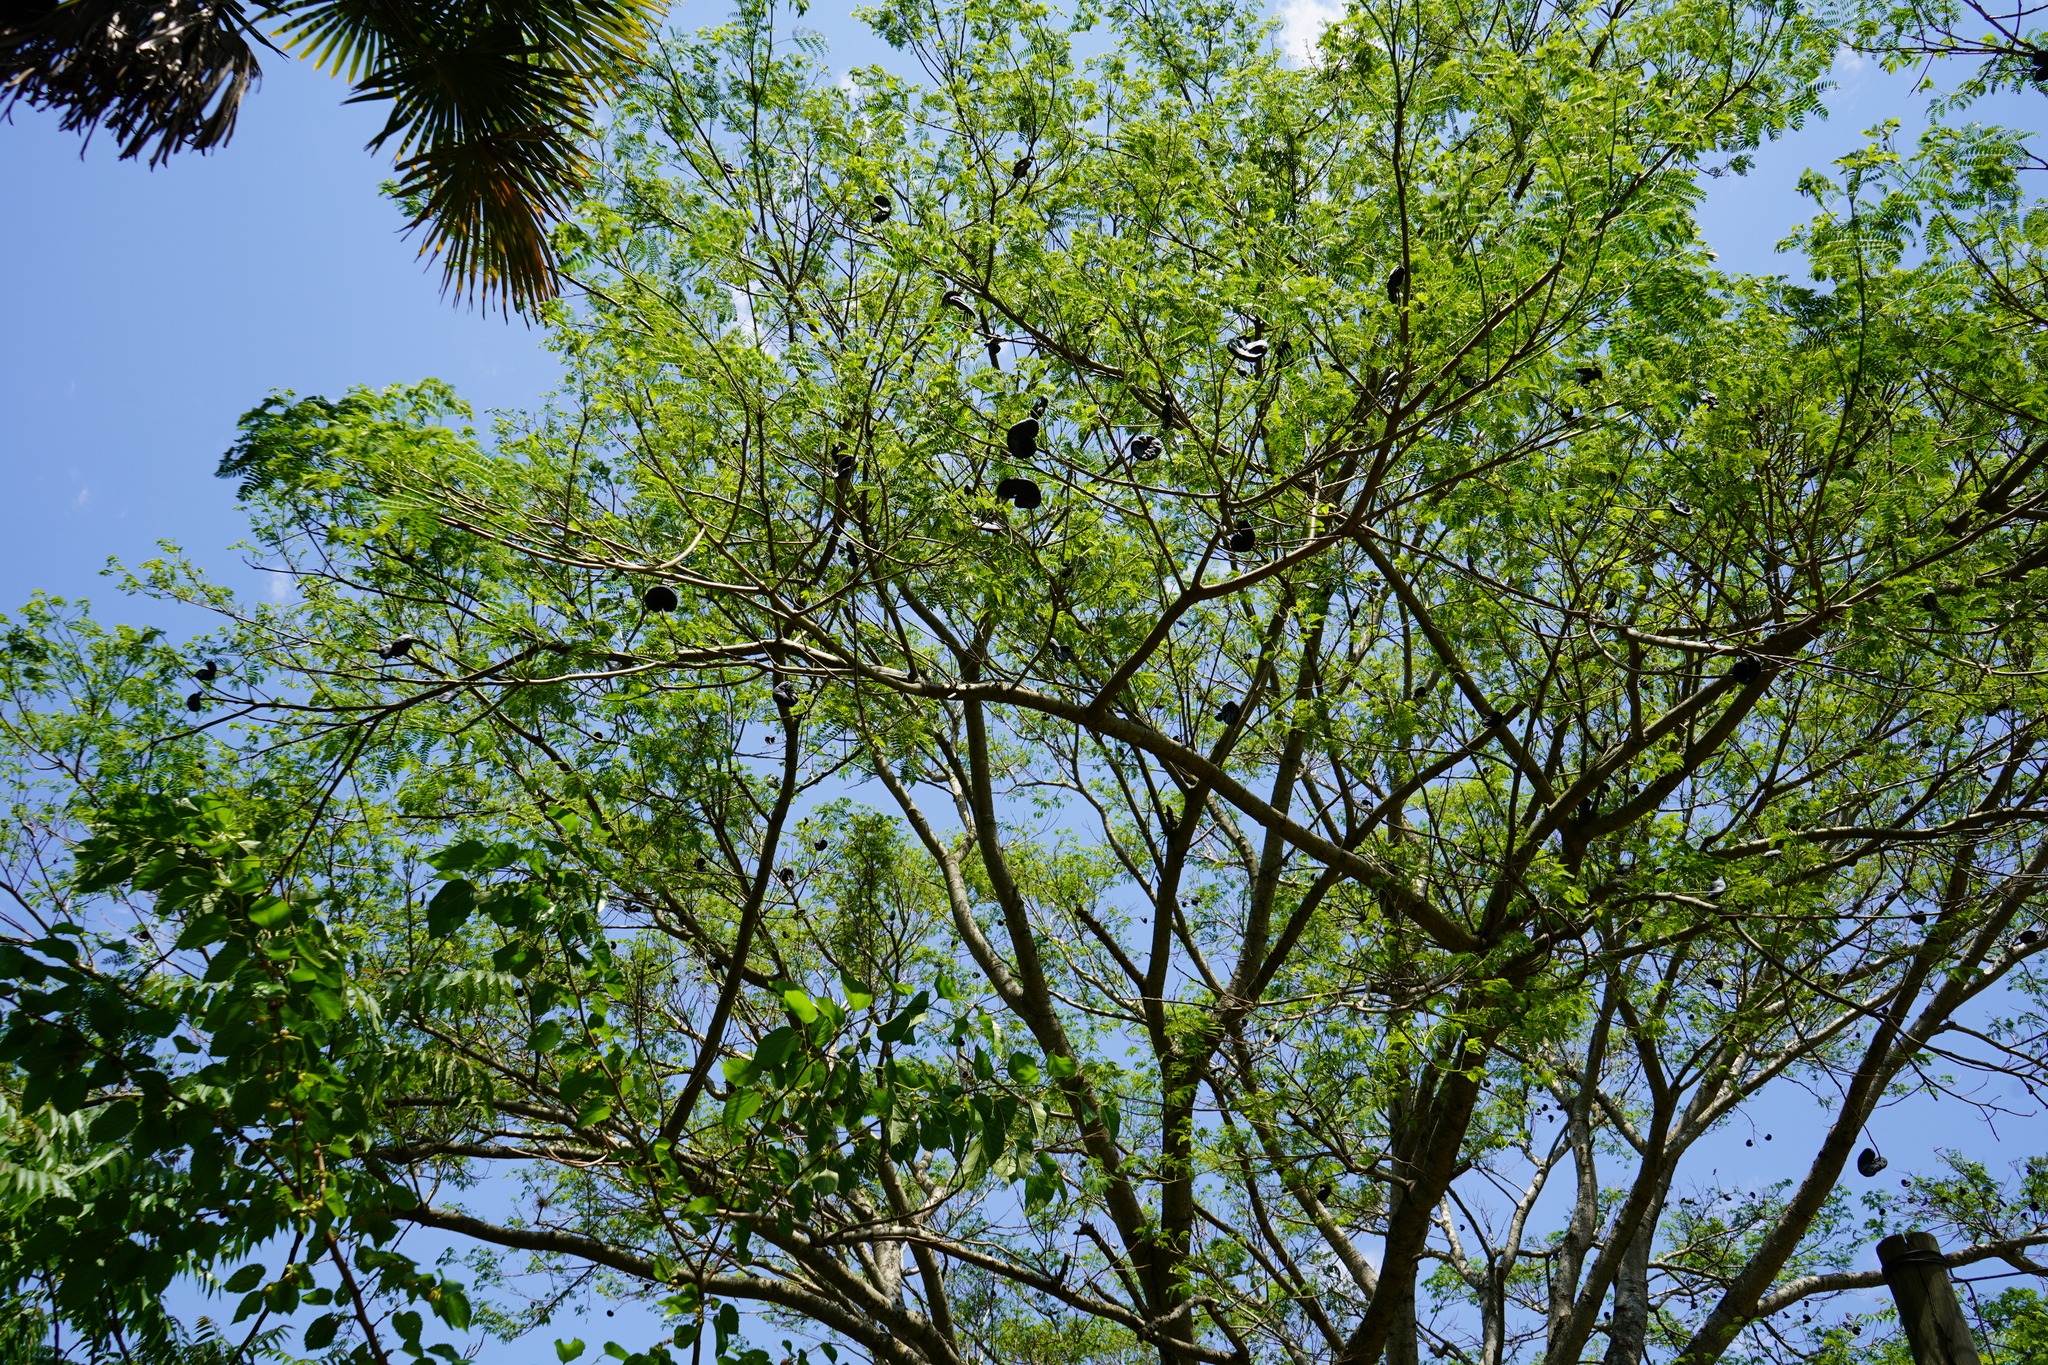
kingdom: Plantae
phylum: Tracheophyta
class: Magnoliopsida
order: Fabales
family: Fabaceae
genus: Enterolobium
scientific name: Enterolobium contortisiliquum
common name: Pacara earpod tree
